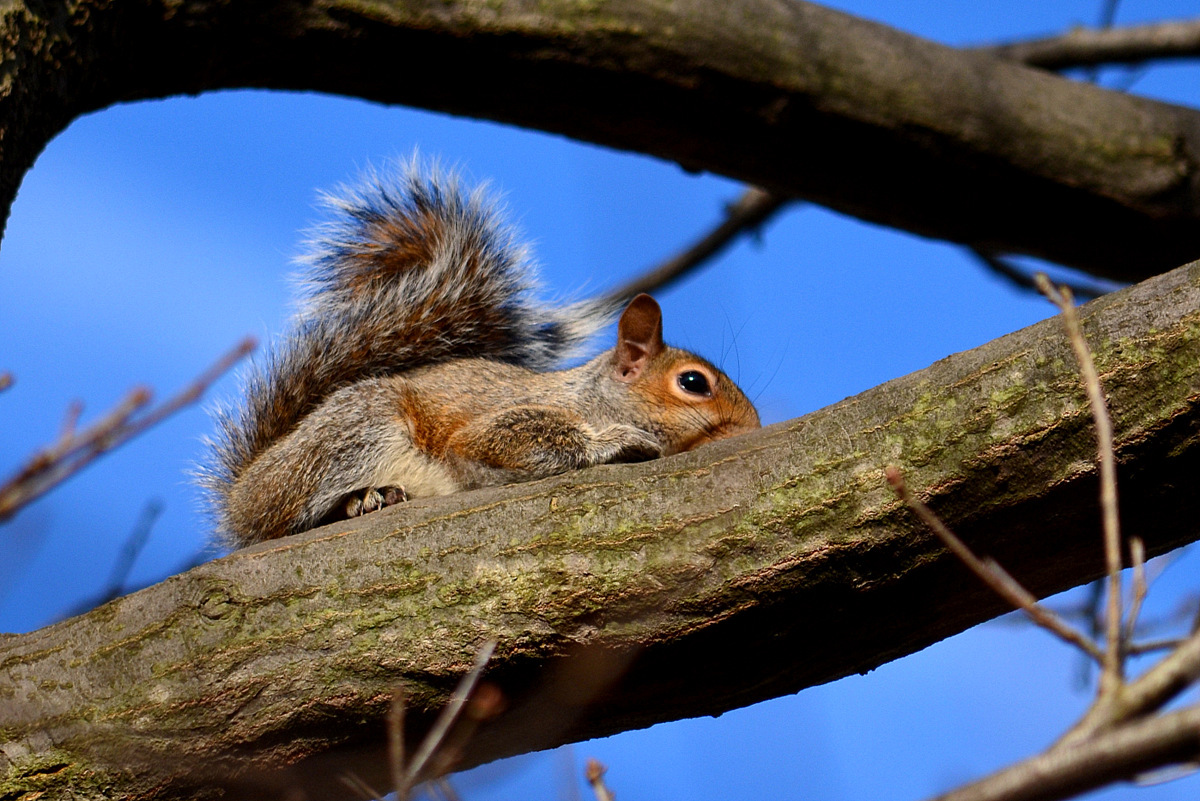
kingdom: Animalia
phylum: Chordata
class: Mammalia
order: Rodentia
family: Sciuridae
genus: Sciurus
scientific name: Sciurus carolinensis
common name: Eastern gray squirrel
